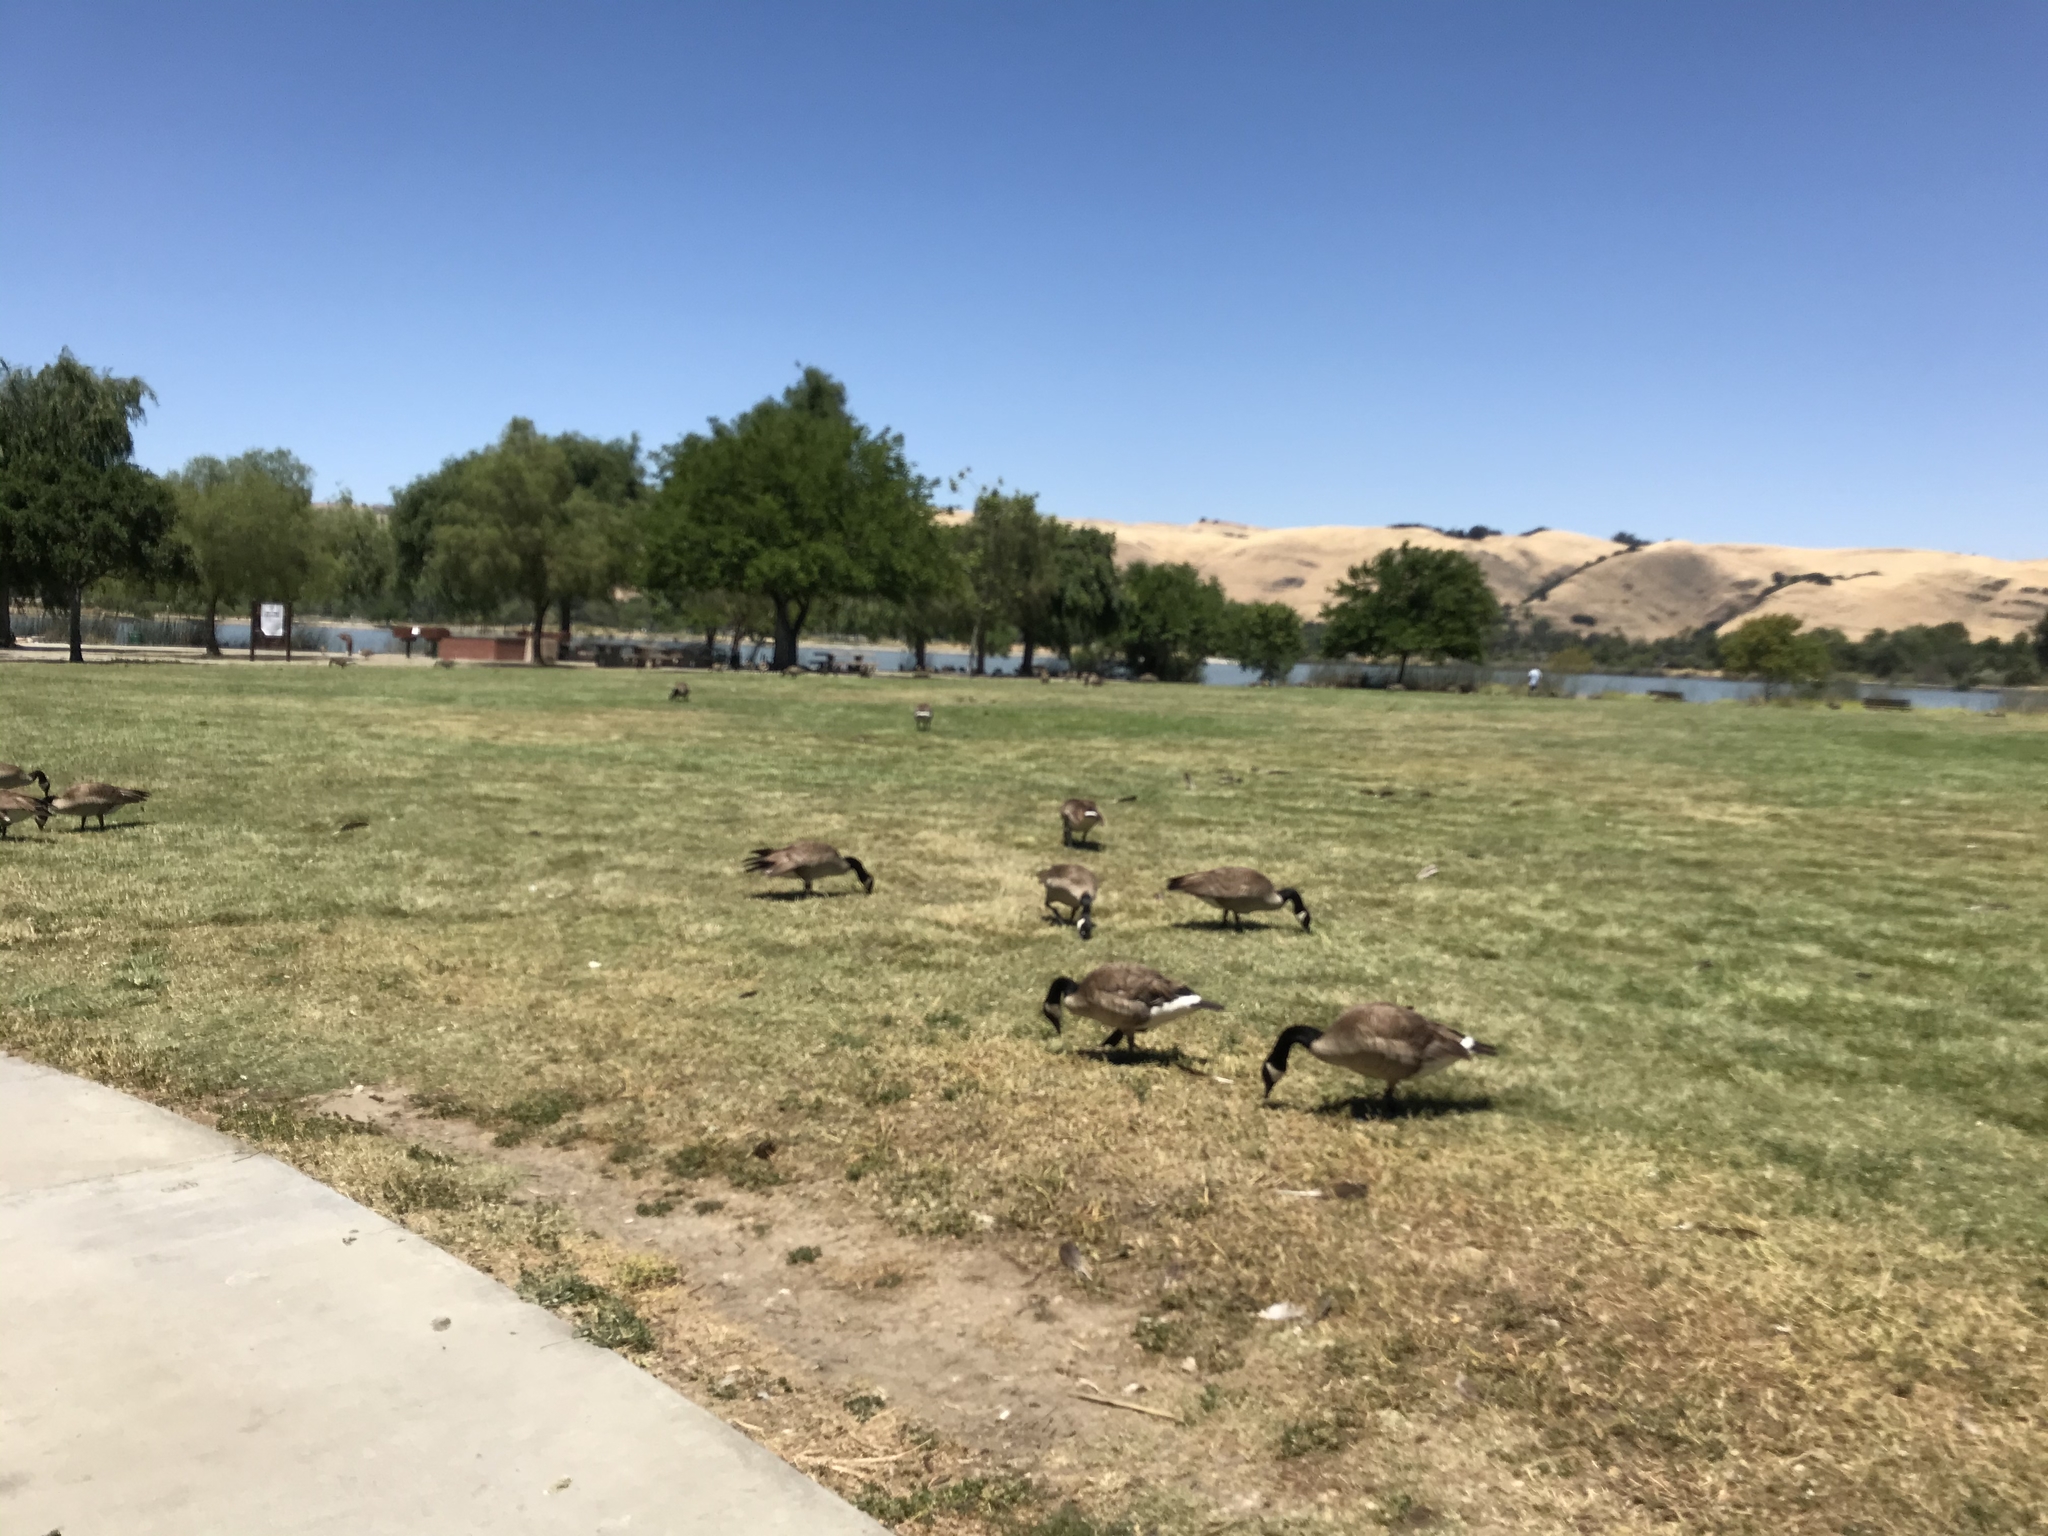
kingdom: Animalia
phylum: Chordata
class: Aves
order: Anseriformes
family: Anatidae
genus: Branta
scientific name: Branta canadensis
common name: Canada goose
